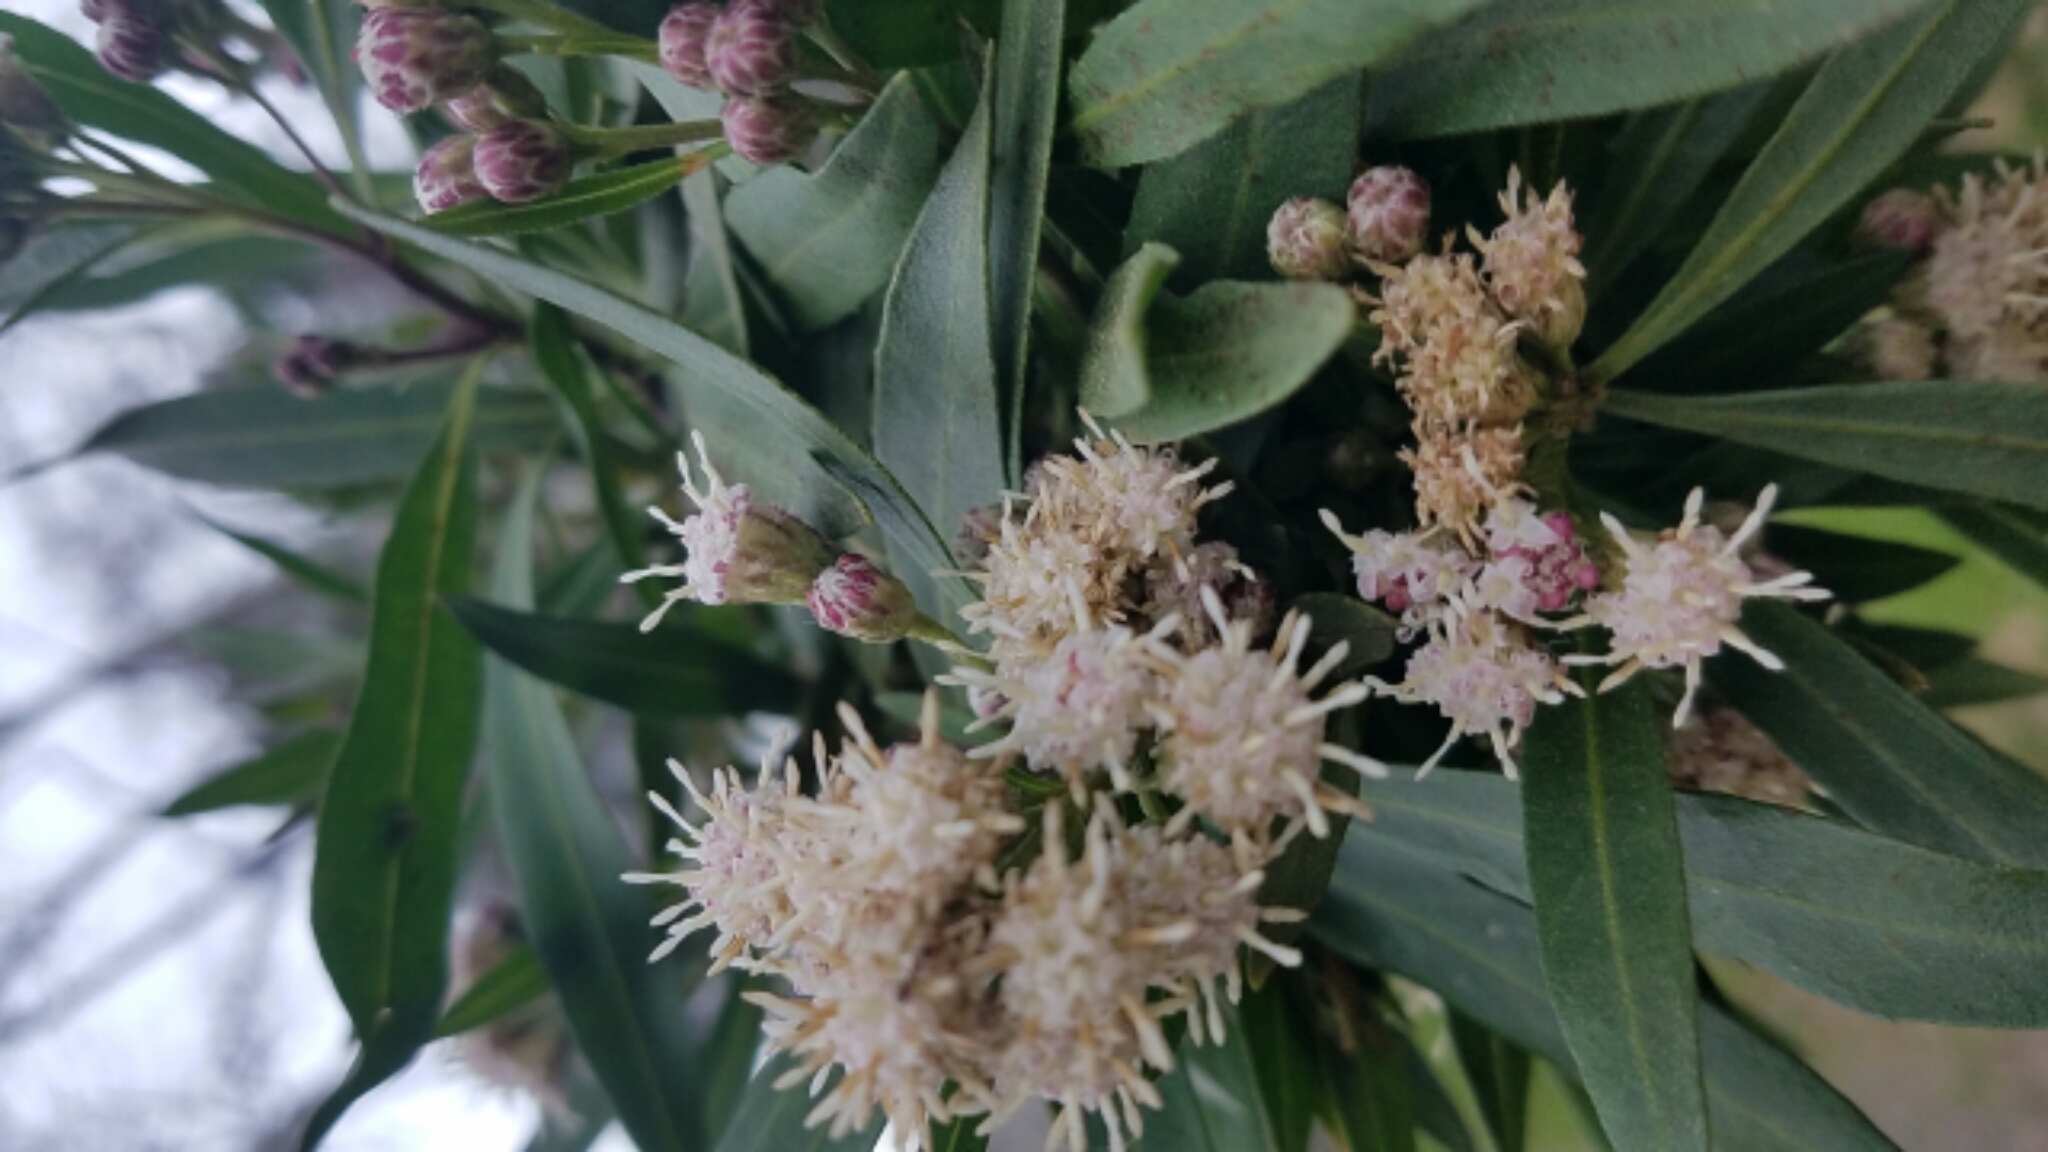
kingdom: Plantae
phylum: Tracheophyta
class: Magnoliopsida
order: Asterales
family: Asteraceae
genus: Baccharis
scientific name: Baccharis salicifolia
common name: Sticky baccharis
